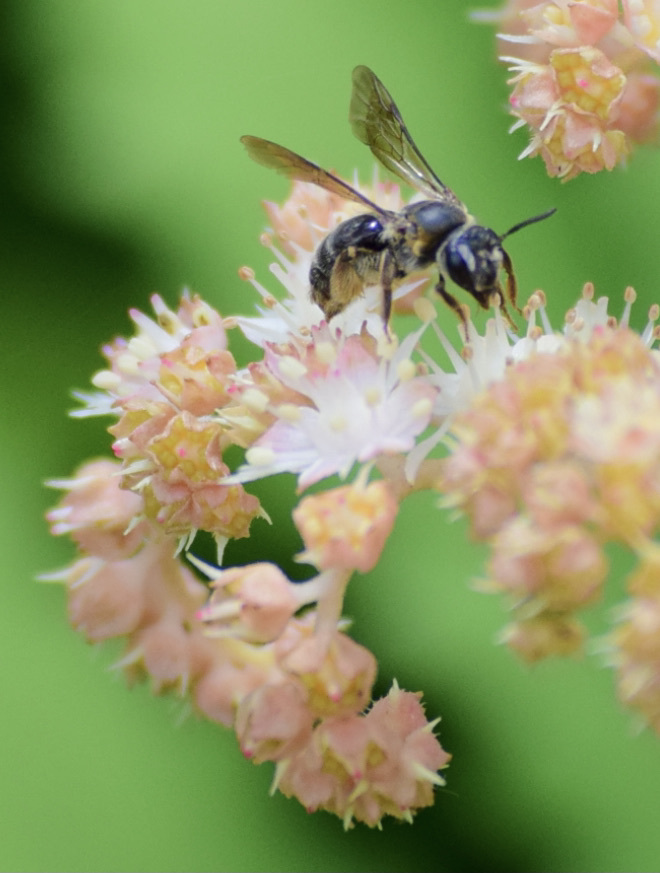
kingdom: Animalia
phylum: Arthropoda
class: Insecta
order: Hymenoptera
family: Andrenidae
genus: Andrena
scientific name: Andrena alleghaniensis
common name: Allegheny mining bee
